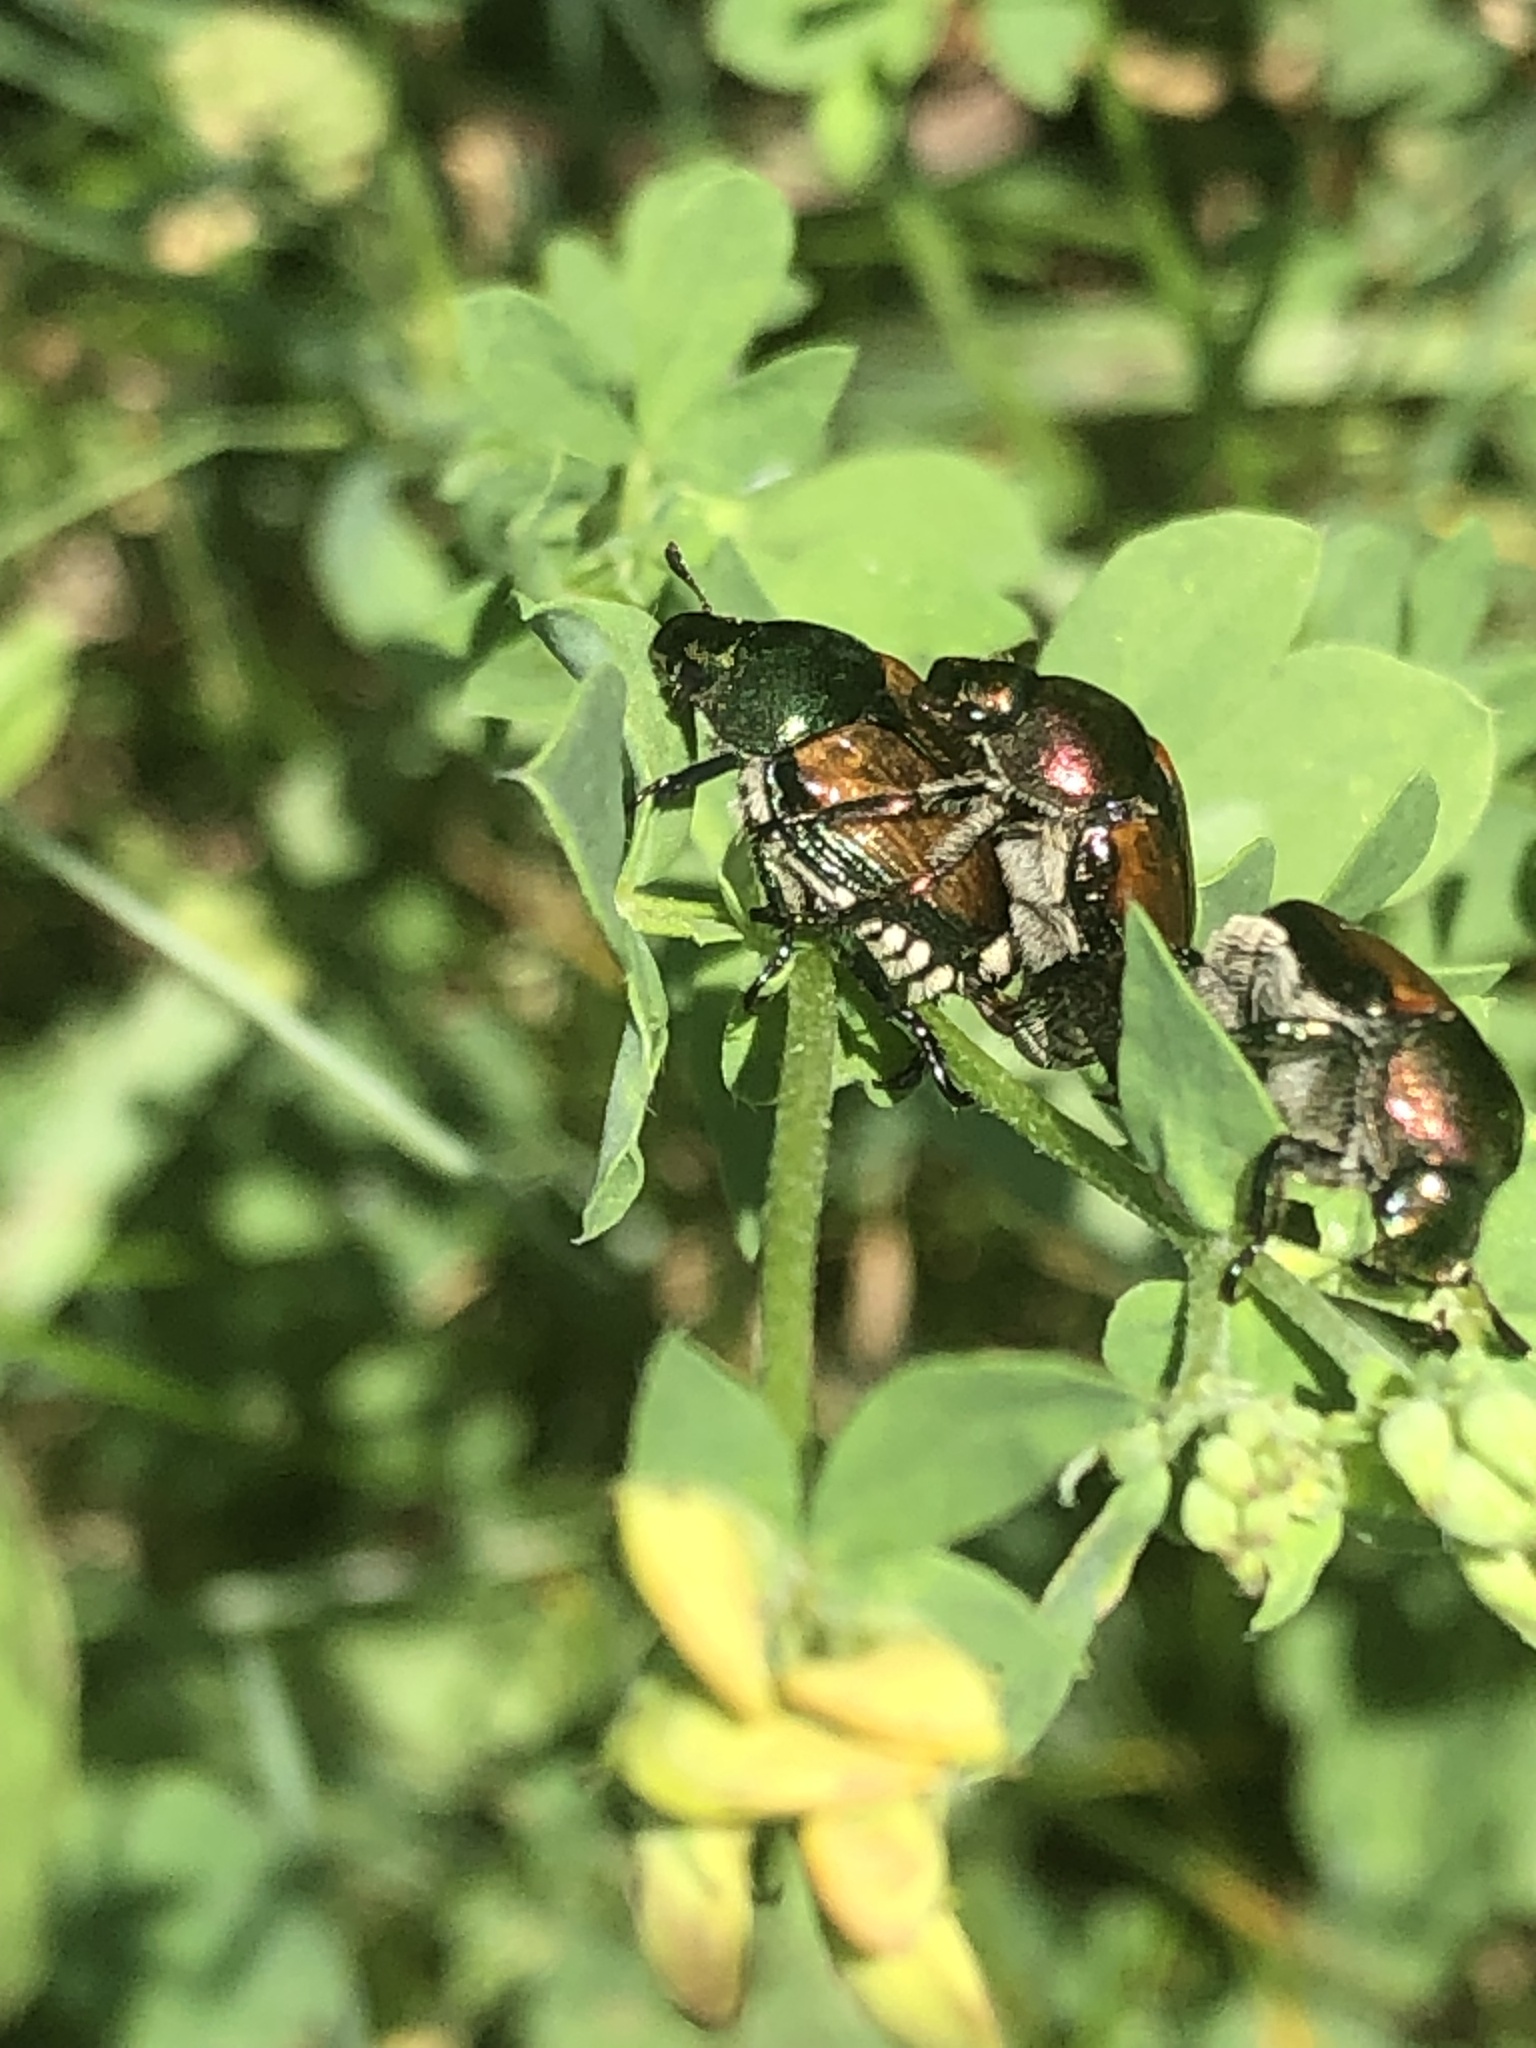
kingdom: Animalia
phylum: Arthropoda
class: Insecta
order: Coleoptera
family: Scarabaeidae
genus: Popillia
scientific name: Popillia japonica
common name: Japanese beetle
